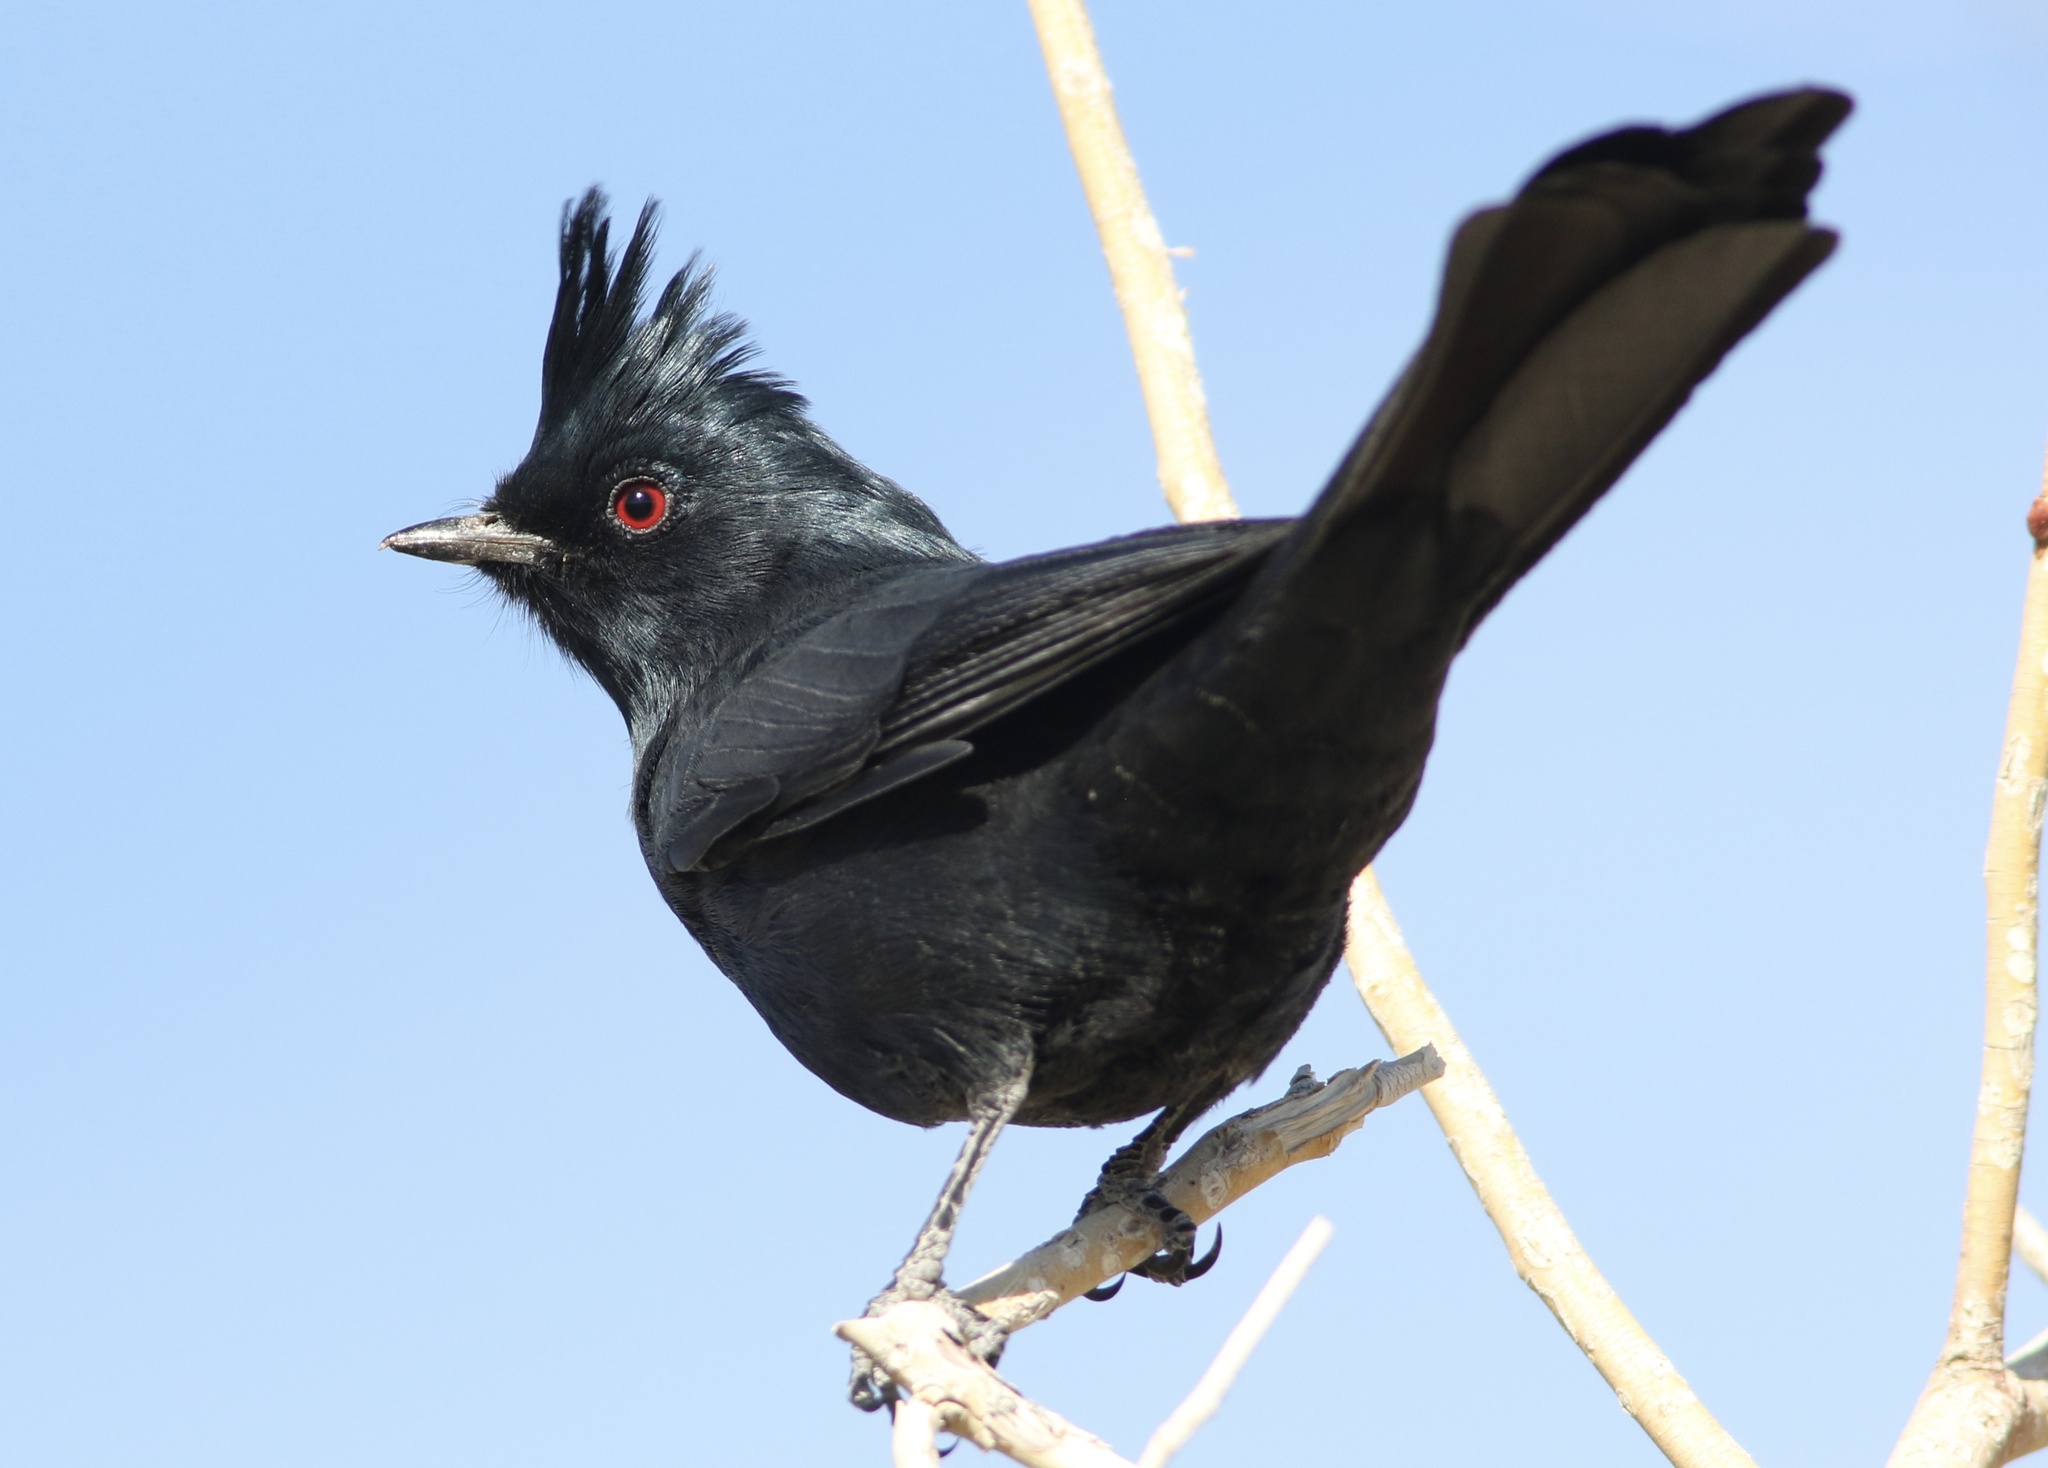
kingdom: Animalia
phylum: Chordata
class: Aves
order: Passeriformes
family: Ptilogonatidae
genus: Phainopepla
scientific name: Phainopepla nitens
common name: Phainopepla
